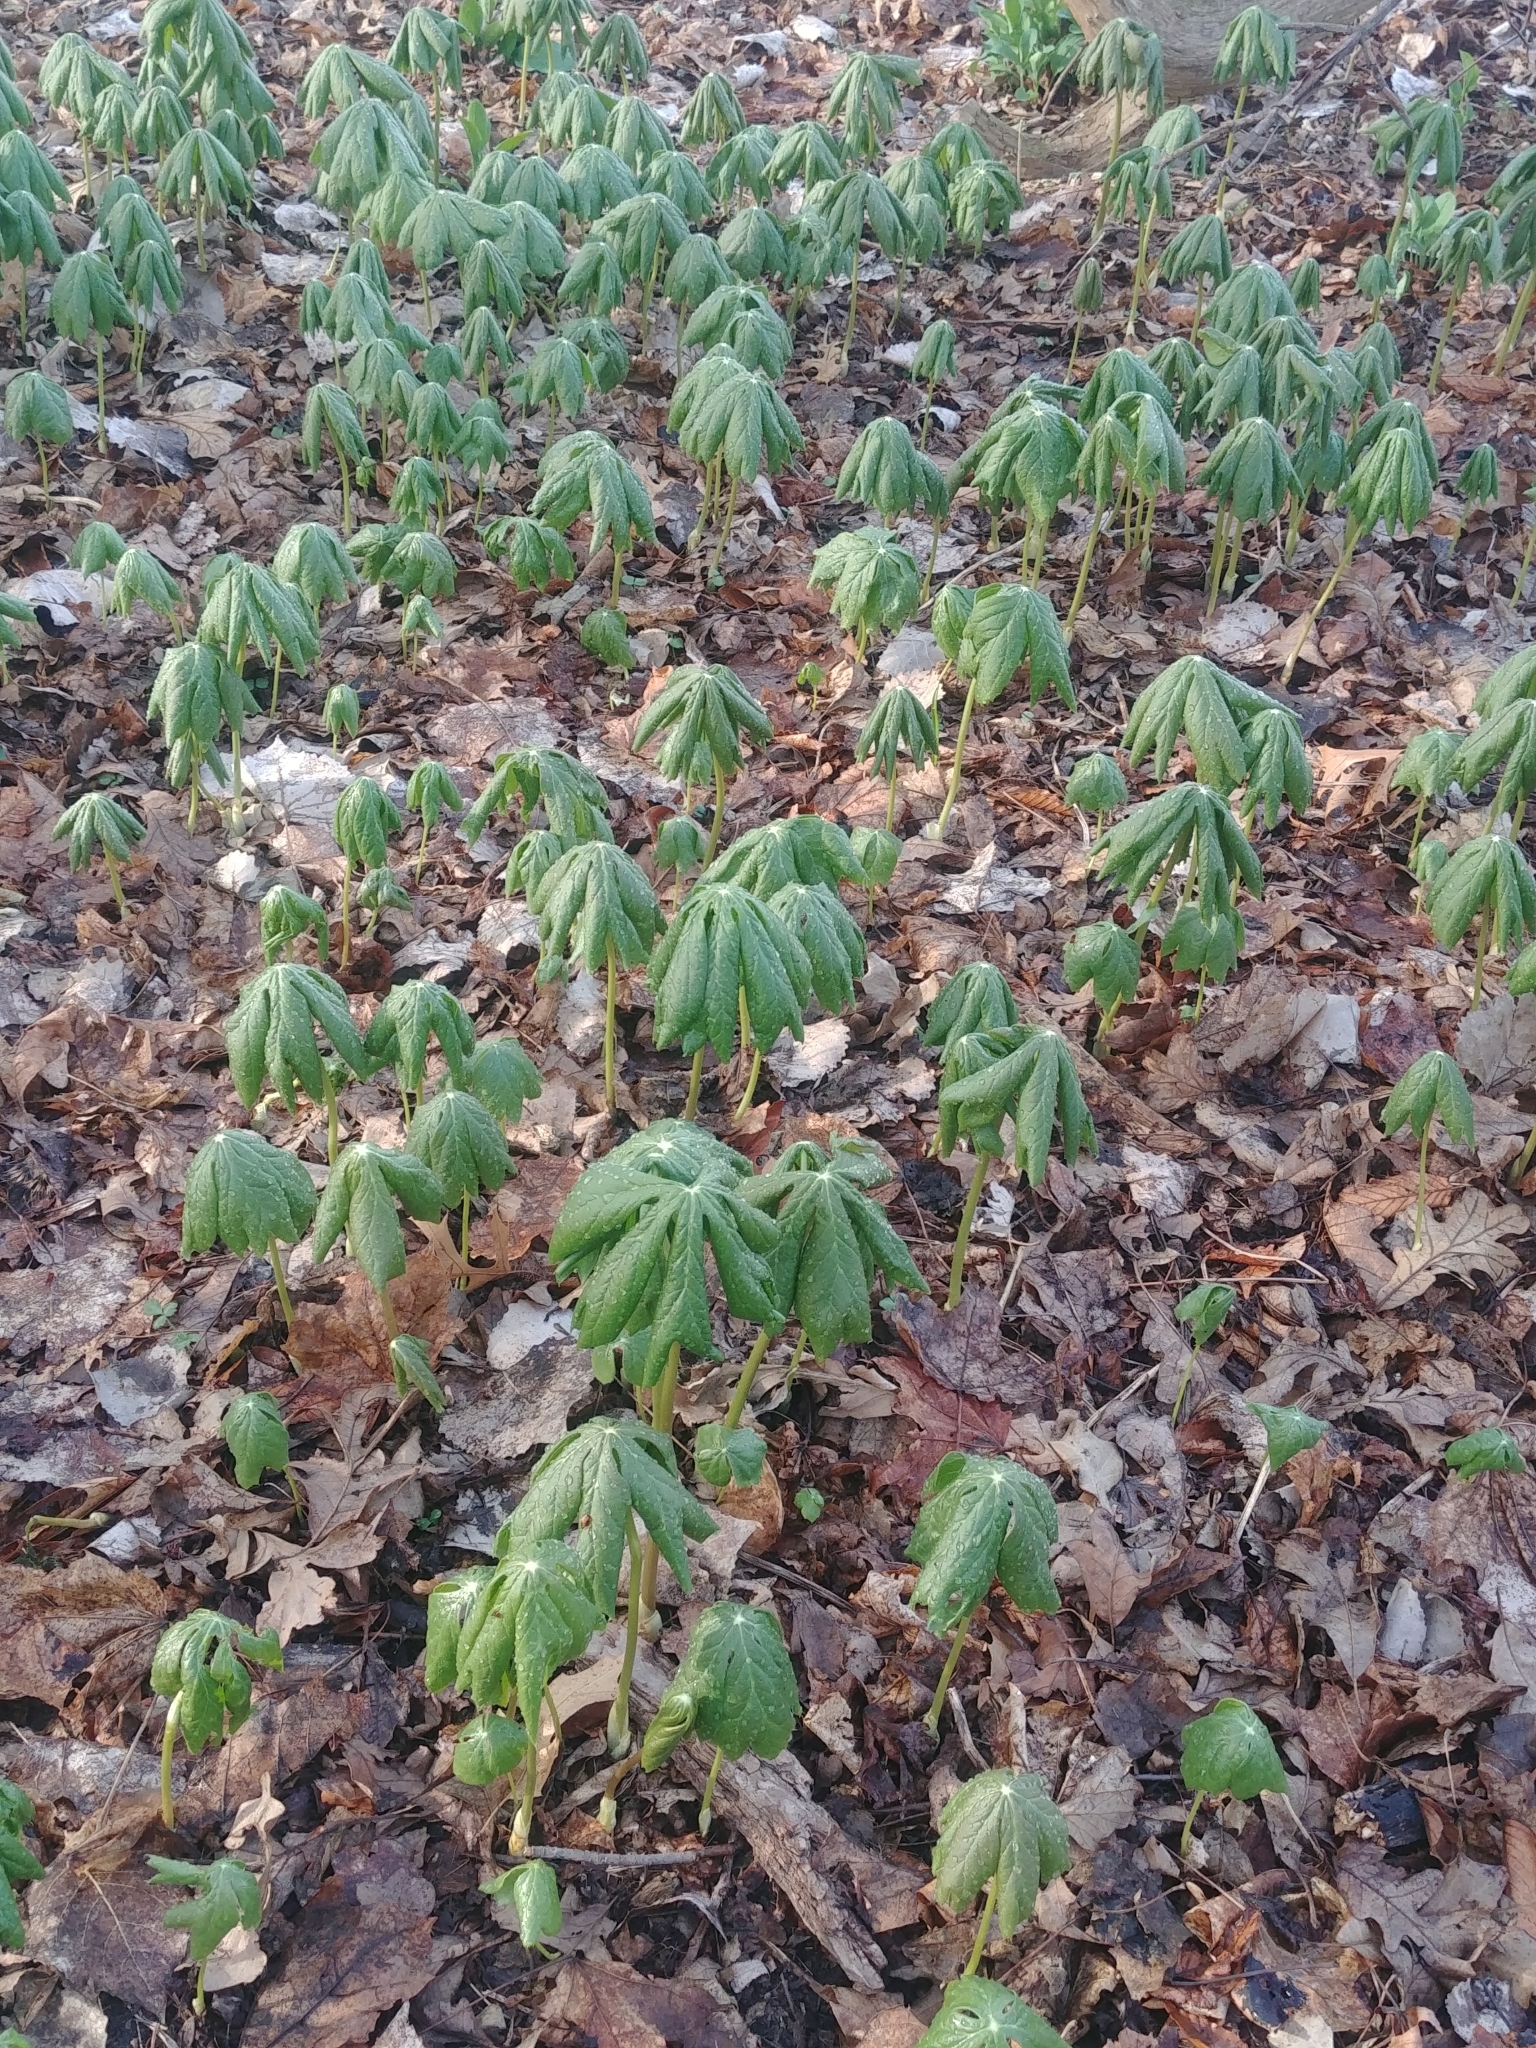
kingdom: Plantae
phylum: Tracheophyta
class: Magnoliopsida
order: Ranunculales
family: Berberidaceae
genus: Podophyllum
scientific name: Podophyllum peltatum
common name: Wild mandrake
